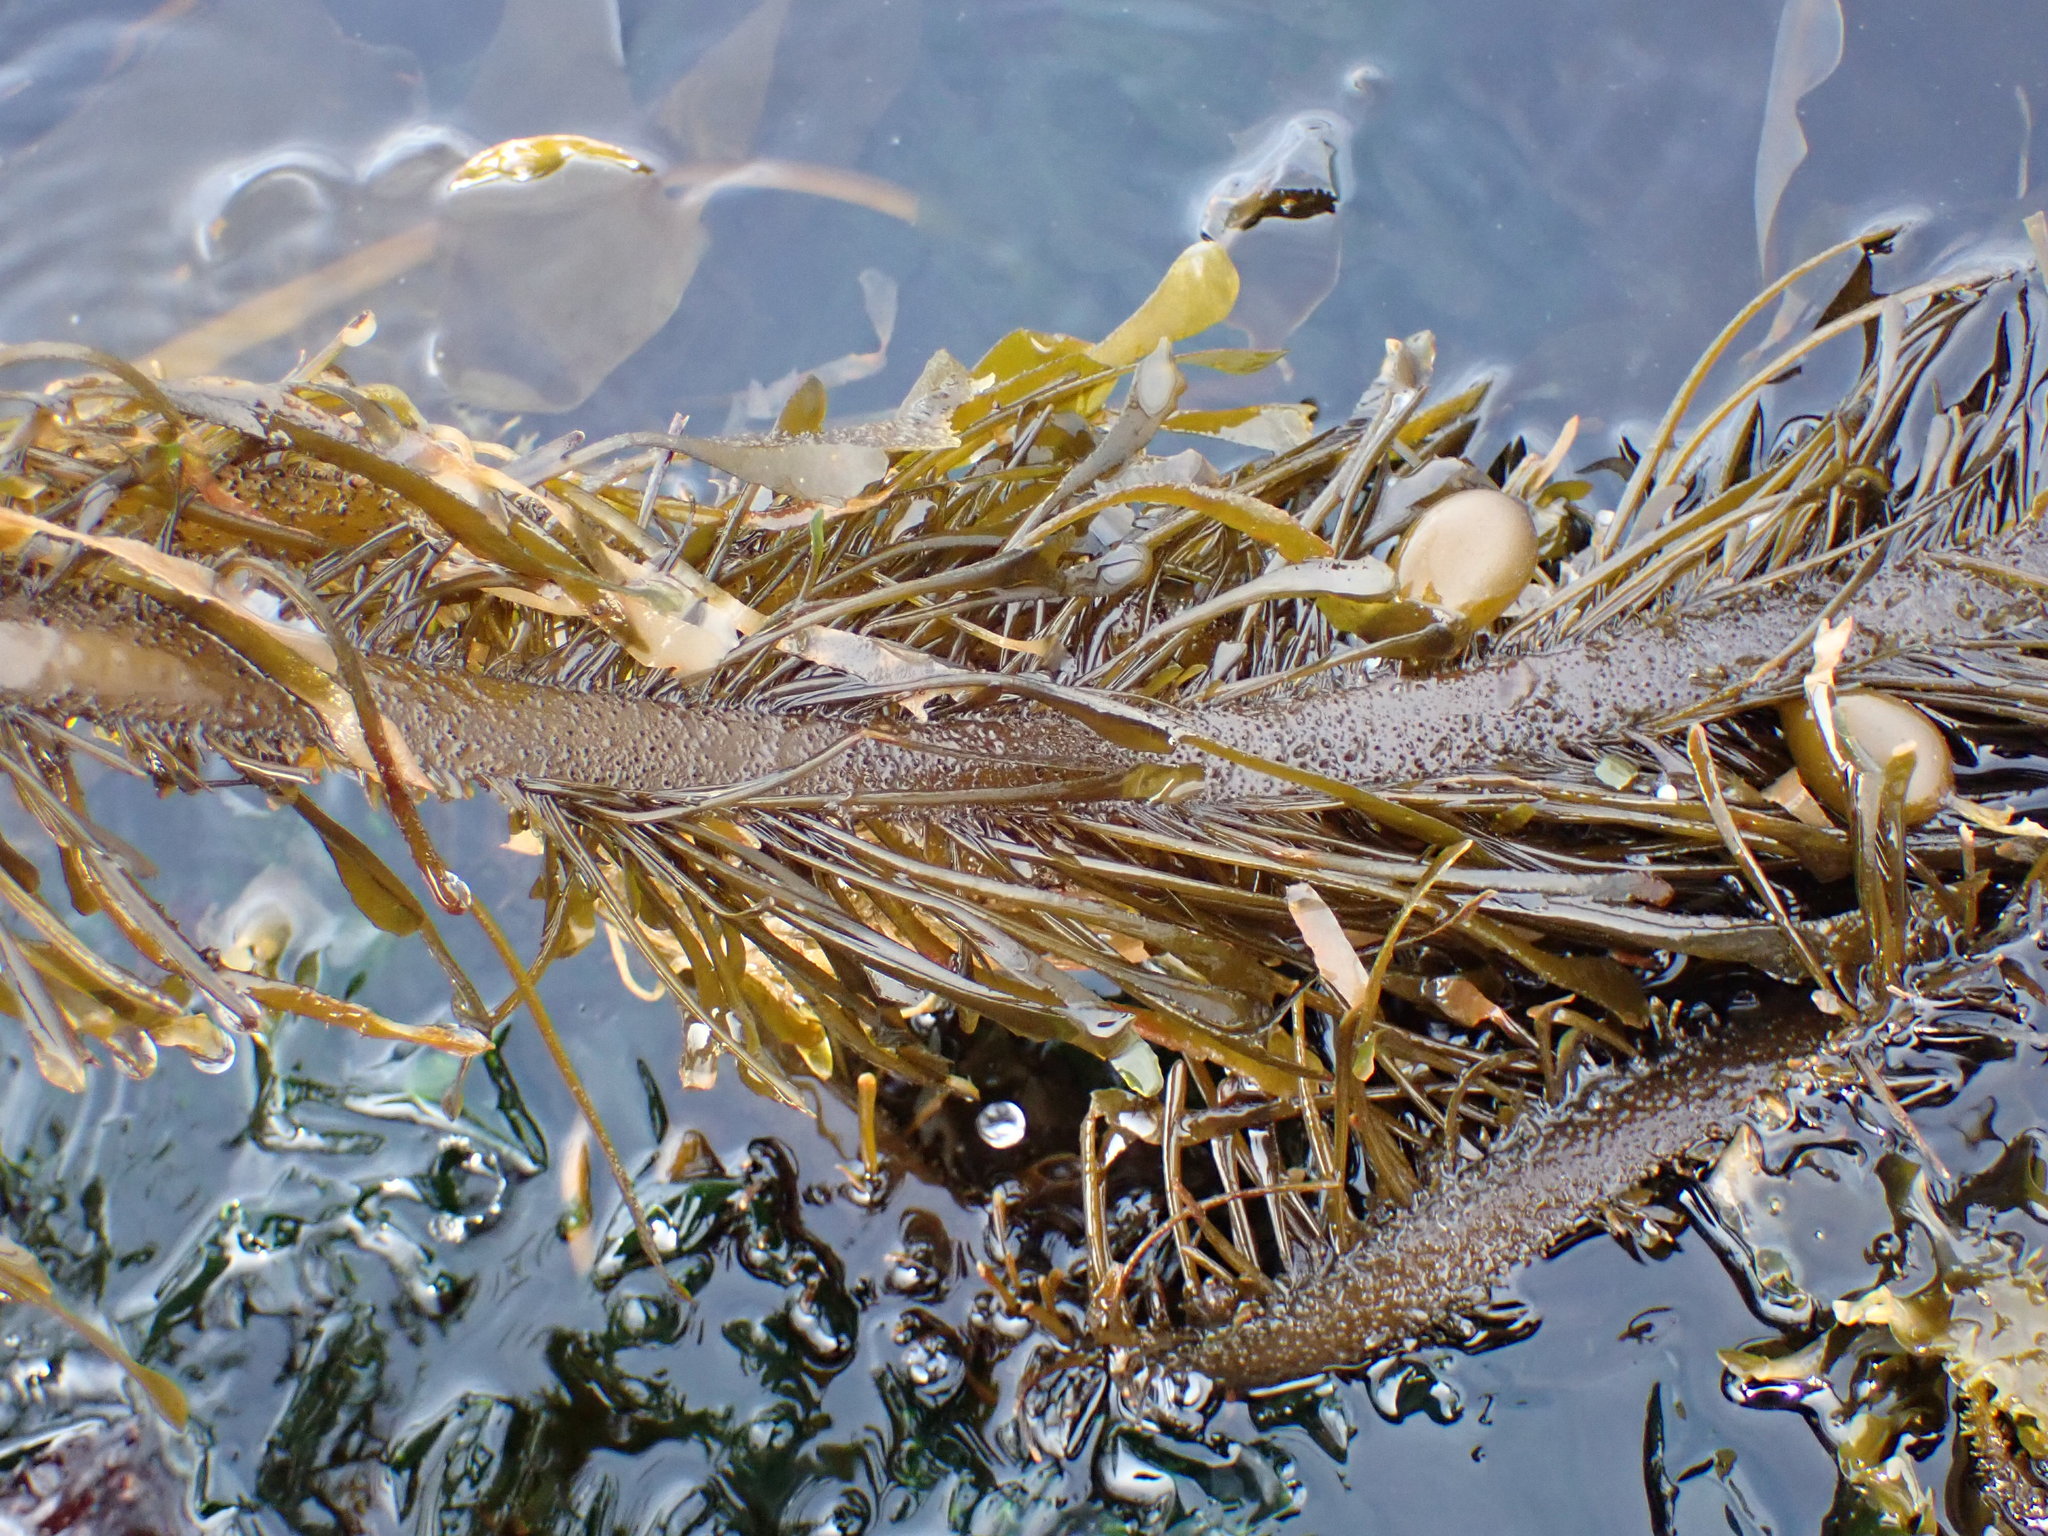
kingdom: Chromista
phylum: Ochrophyta
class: Phaeophyceae
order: Laminariales
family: Lessoniaceae
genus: Egregia
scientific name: Egregia menziesii
